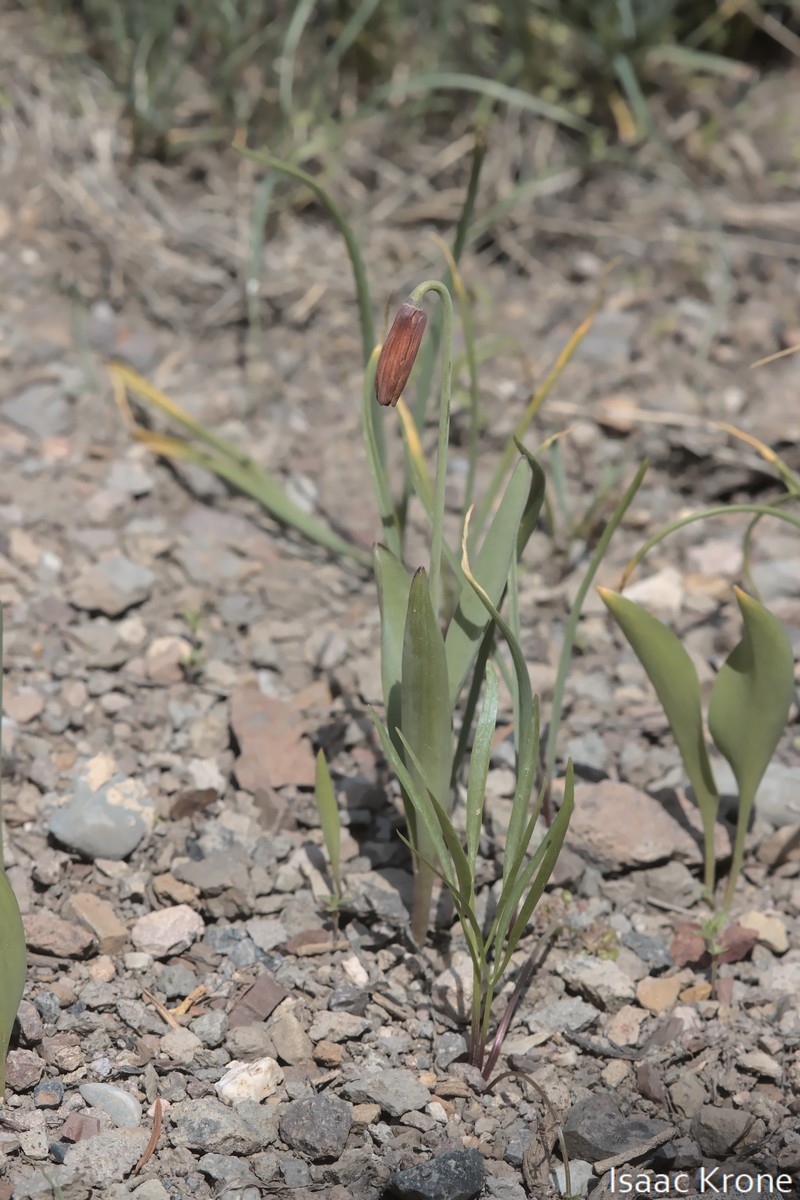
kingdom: Plantae
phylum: Tracheophyta
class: Liliopsida
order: Liliales
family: Liliaceae
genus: Fritillaria
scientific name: Fritillaria pudica
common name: Yellow fritillary
